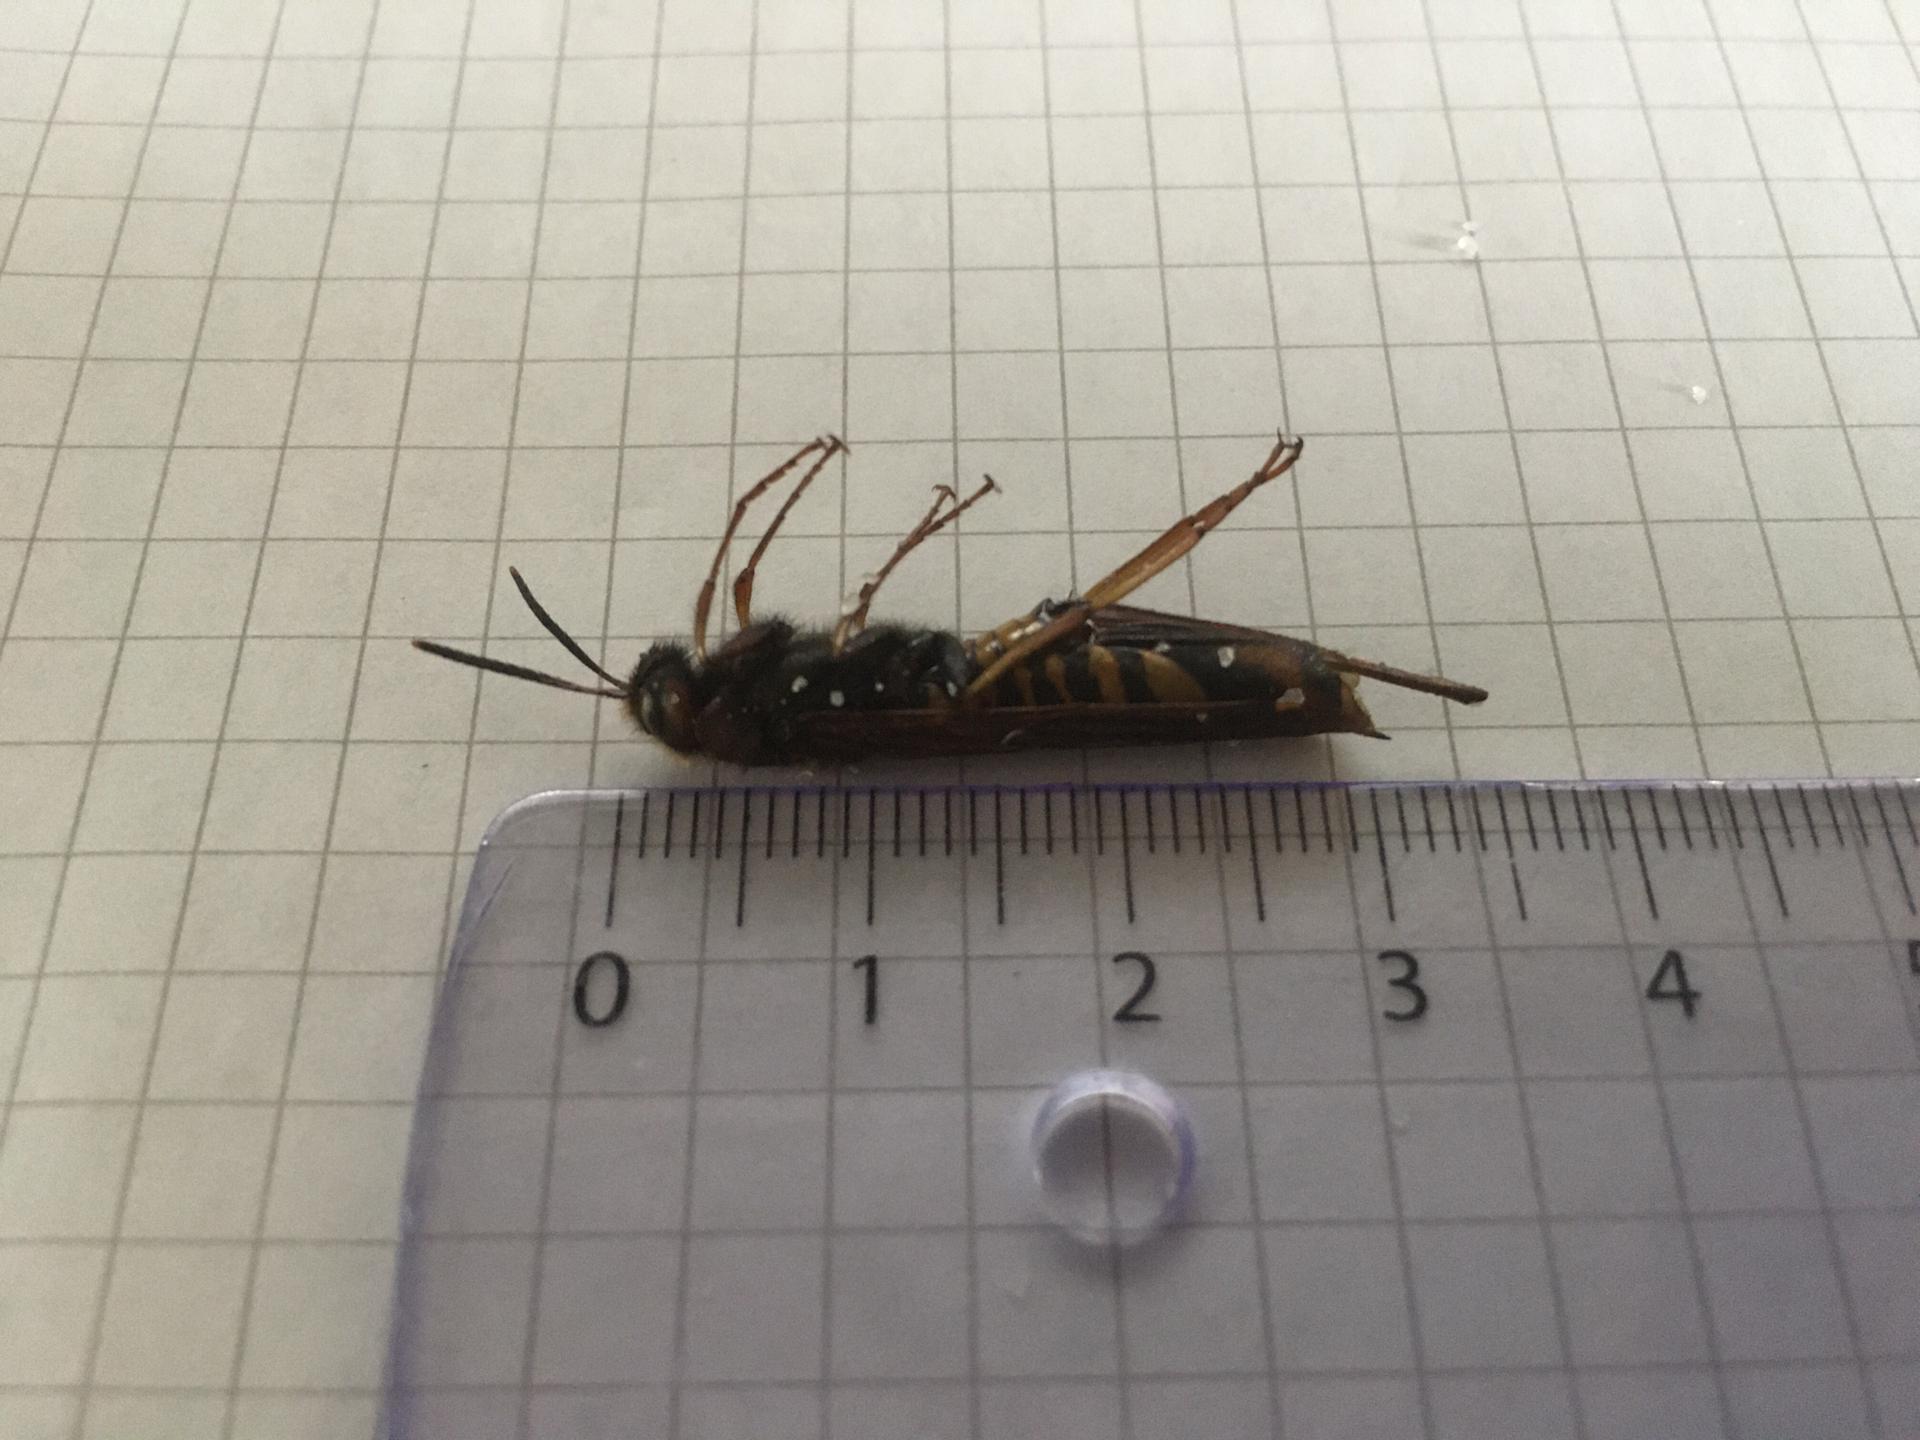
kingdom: Animalia
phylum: Arthropoda
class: Insecta
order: Hymenoptera
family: Siricidae
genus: Tremex
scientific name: Tremex fuscicornis
